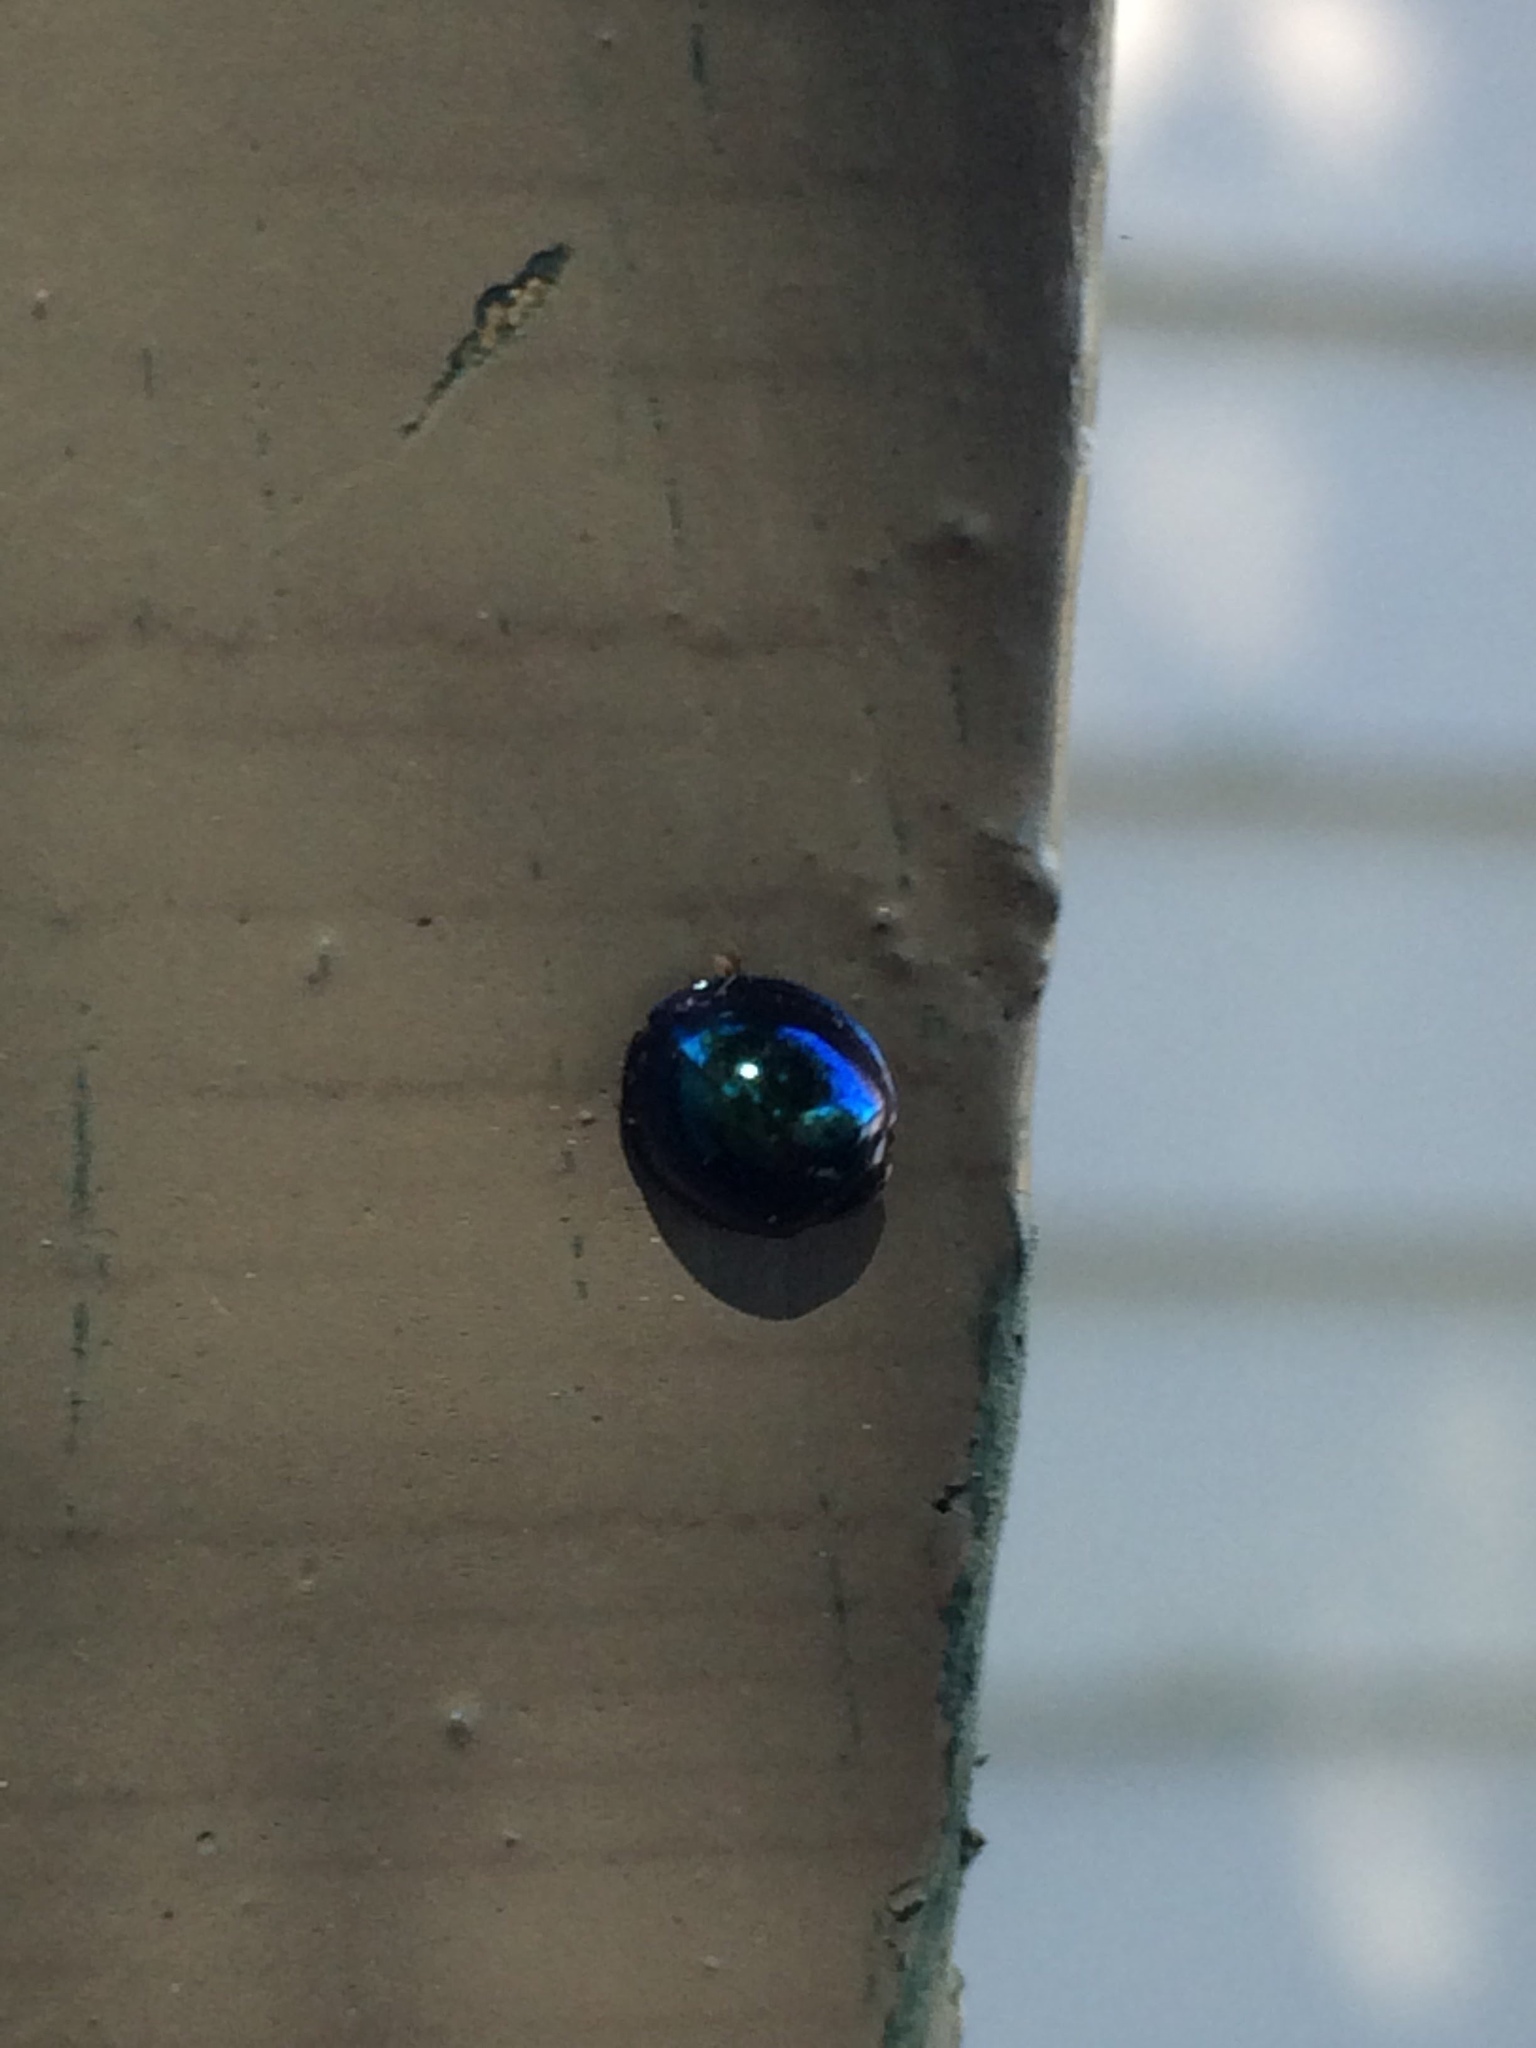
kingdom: Animalia
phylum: Arthropoda
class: Insecta
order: Coleoptera
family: Coccinellidae
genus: Halmus
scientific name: Halmus chalybeus
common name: Steel blue ladybird beetle
